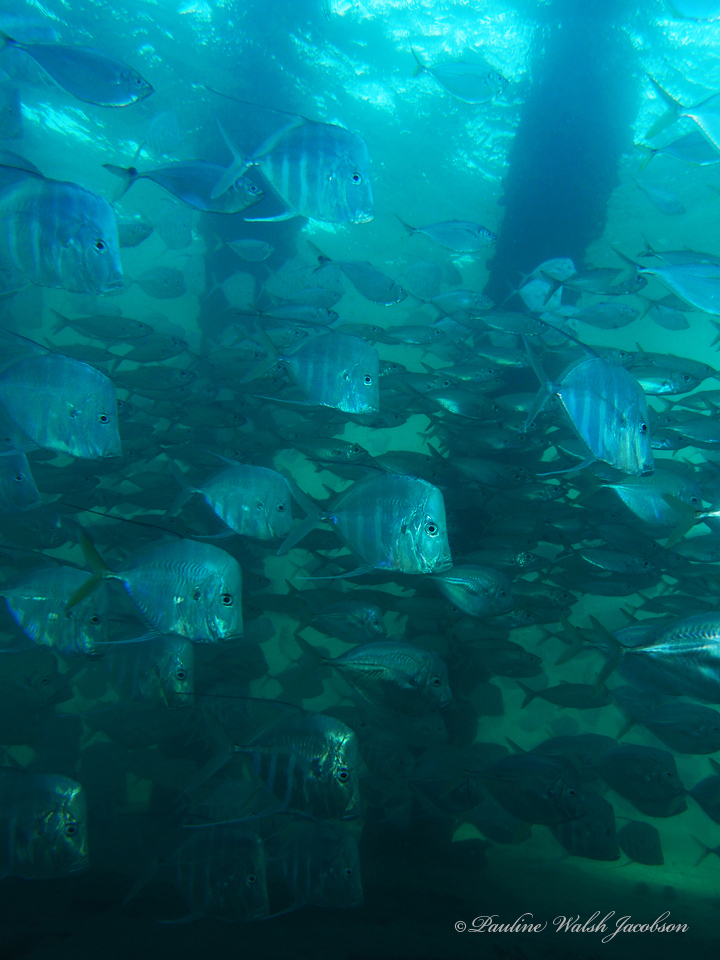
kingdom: Animalia
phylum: Chordata
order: Perciformes
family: Carangidae
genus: Selene
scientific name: Selene vomer
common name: Lookdown
